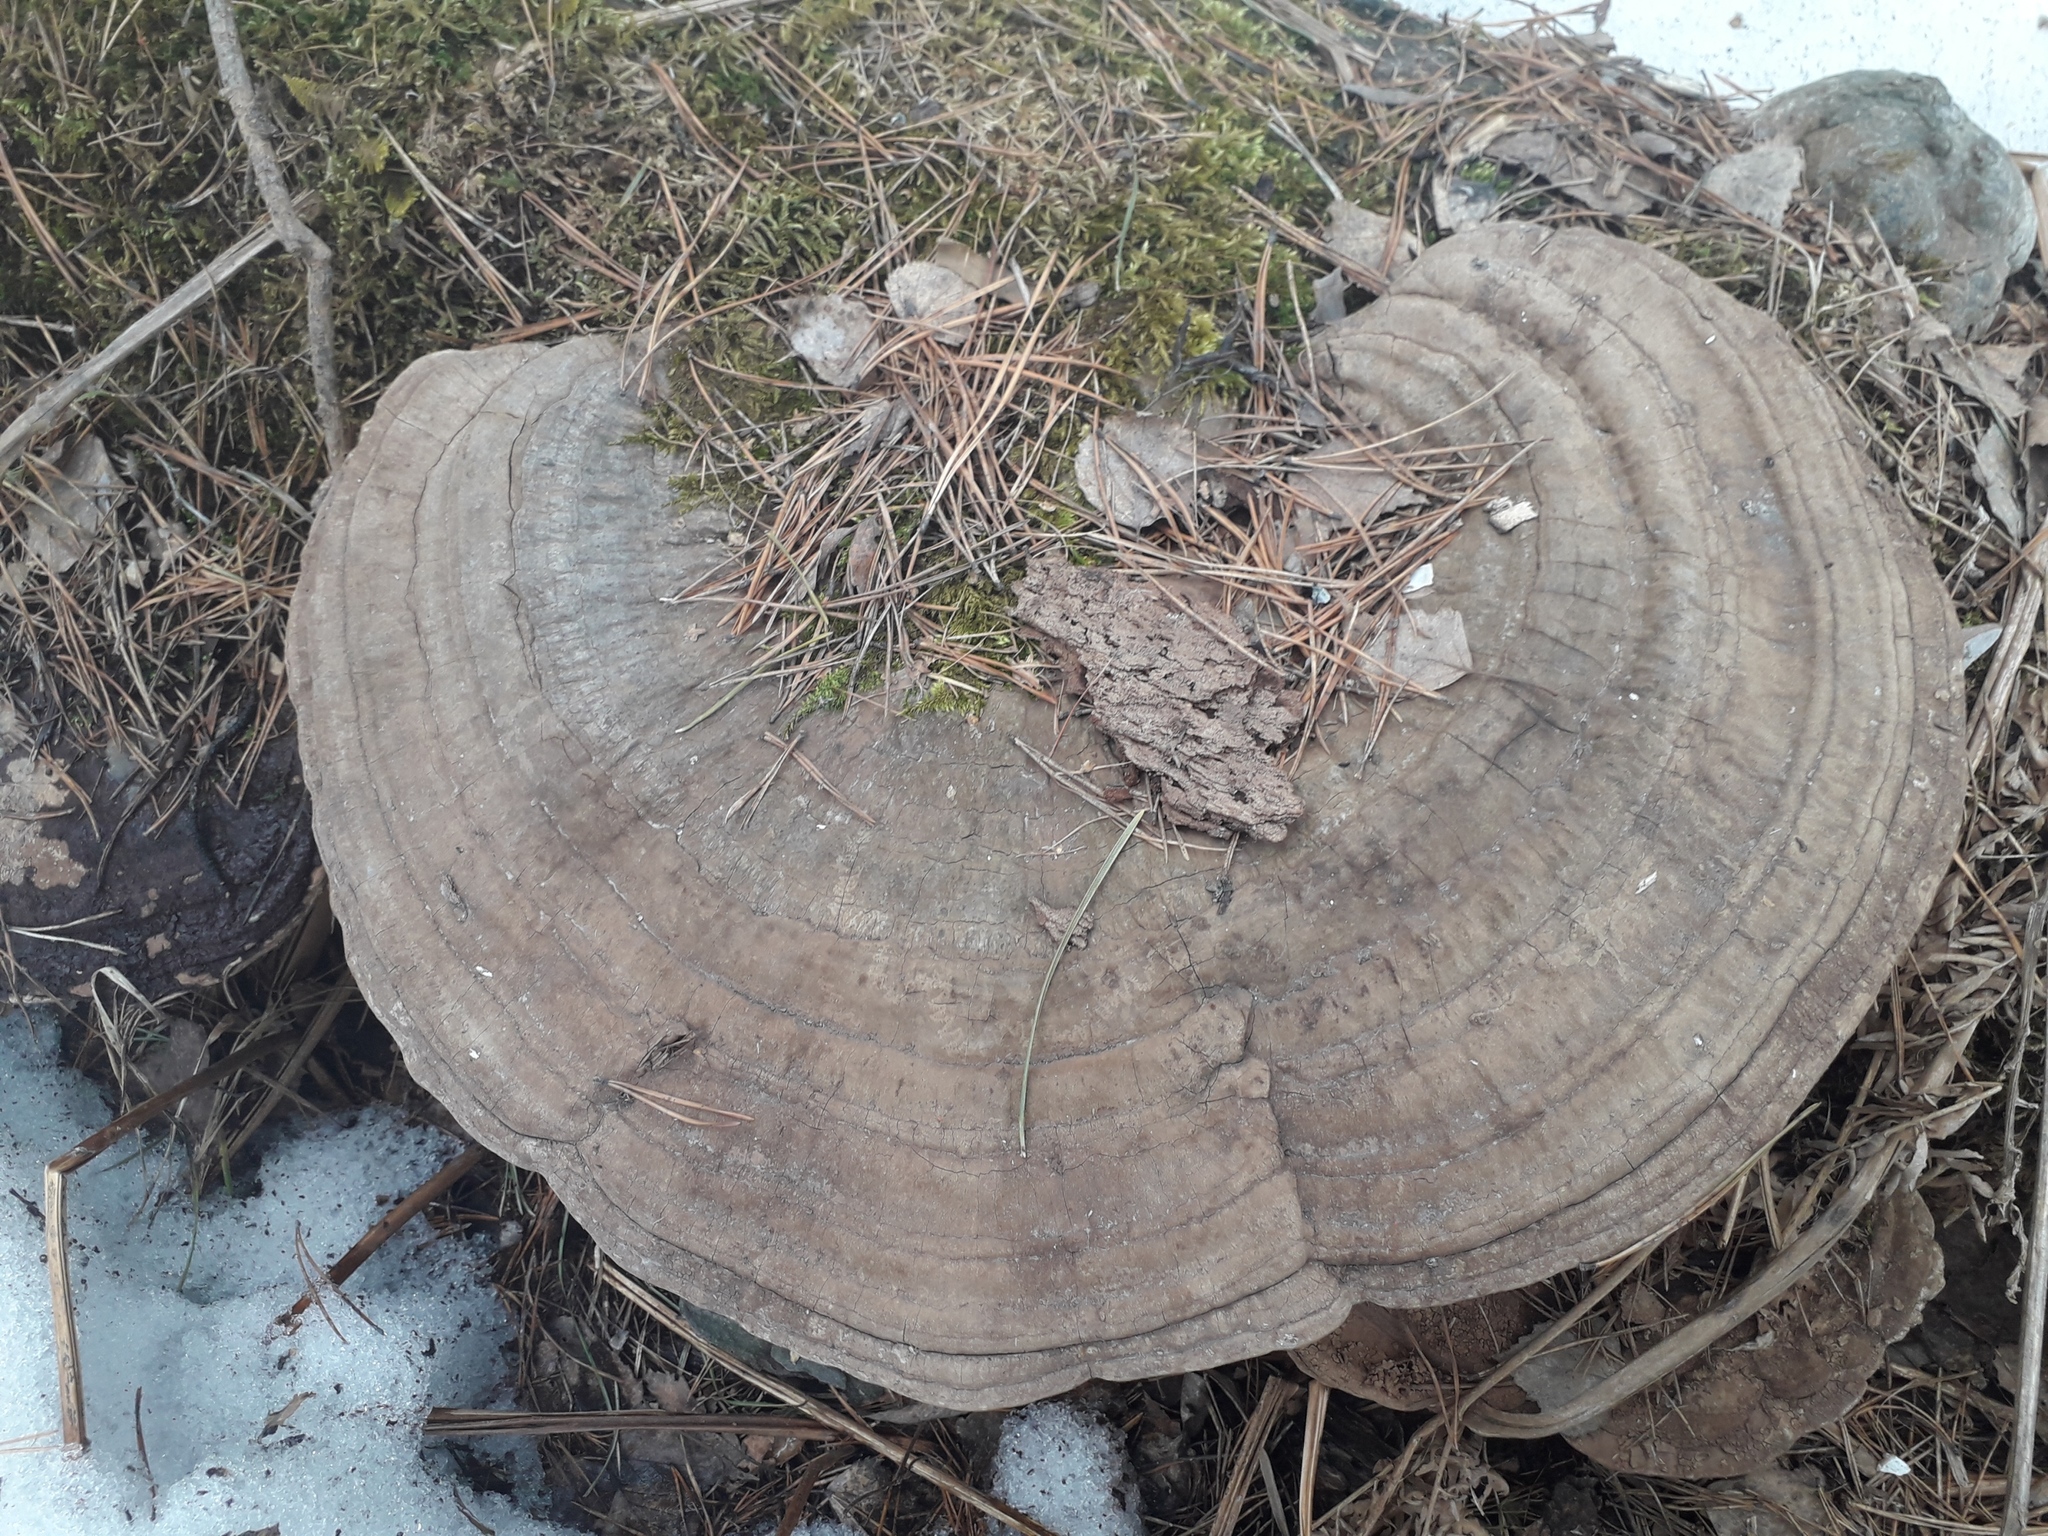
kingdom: Fungi
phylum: Basidiomycota
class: Agaricomycetes
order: Polyporales
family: Polyporaceae
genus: Ganoderma
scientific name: Ganoderma applanatum
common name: Artist's bracket
